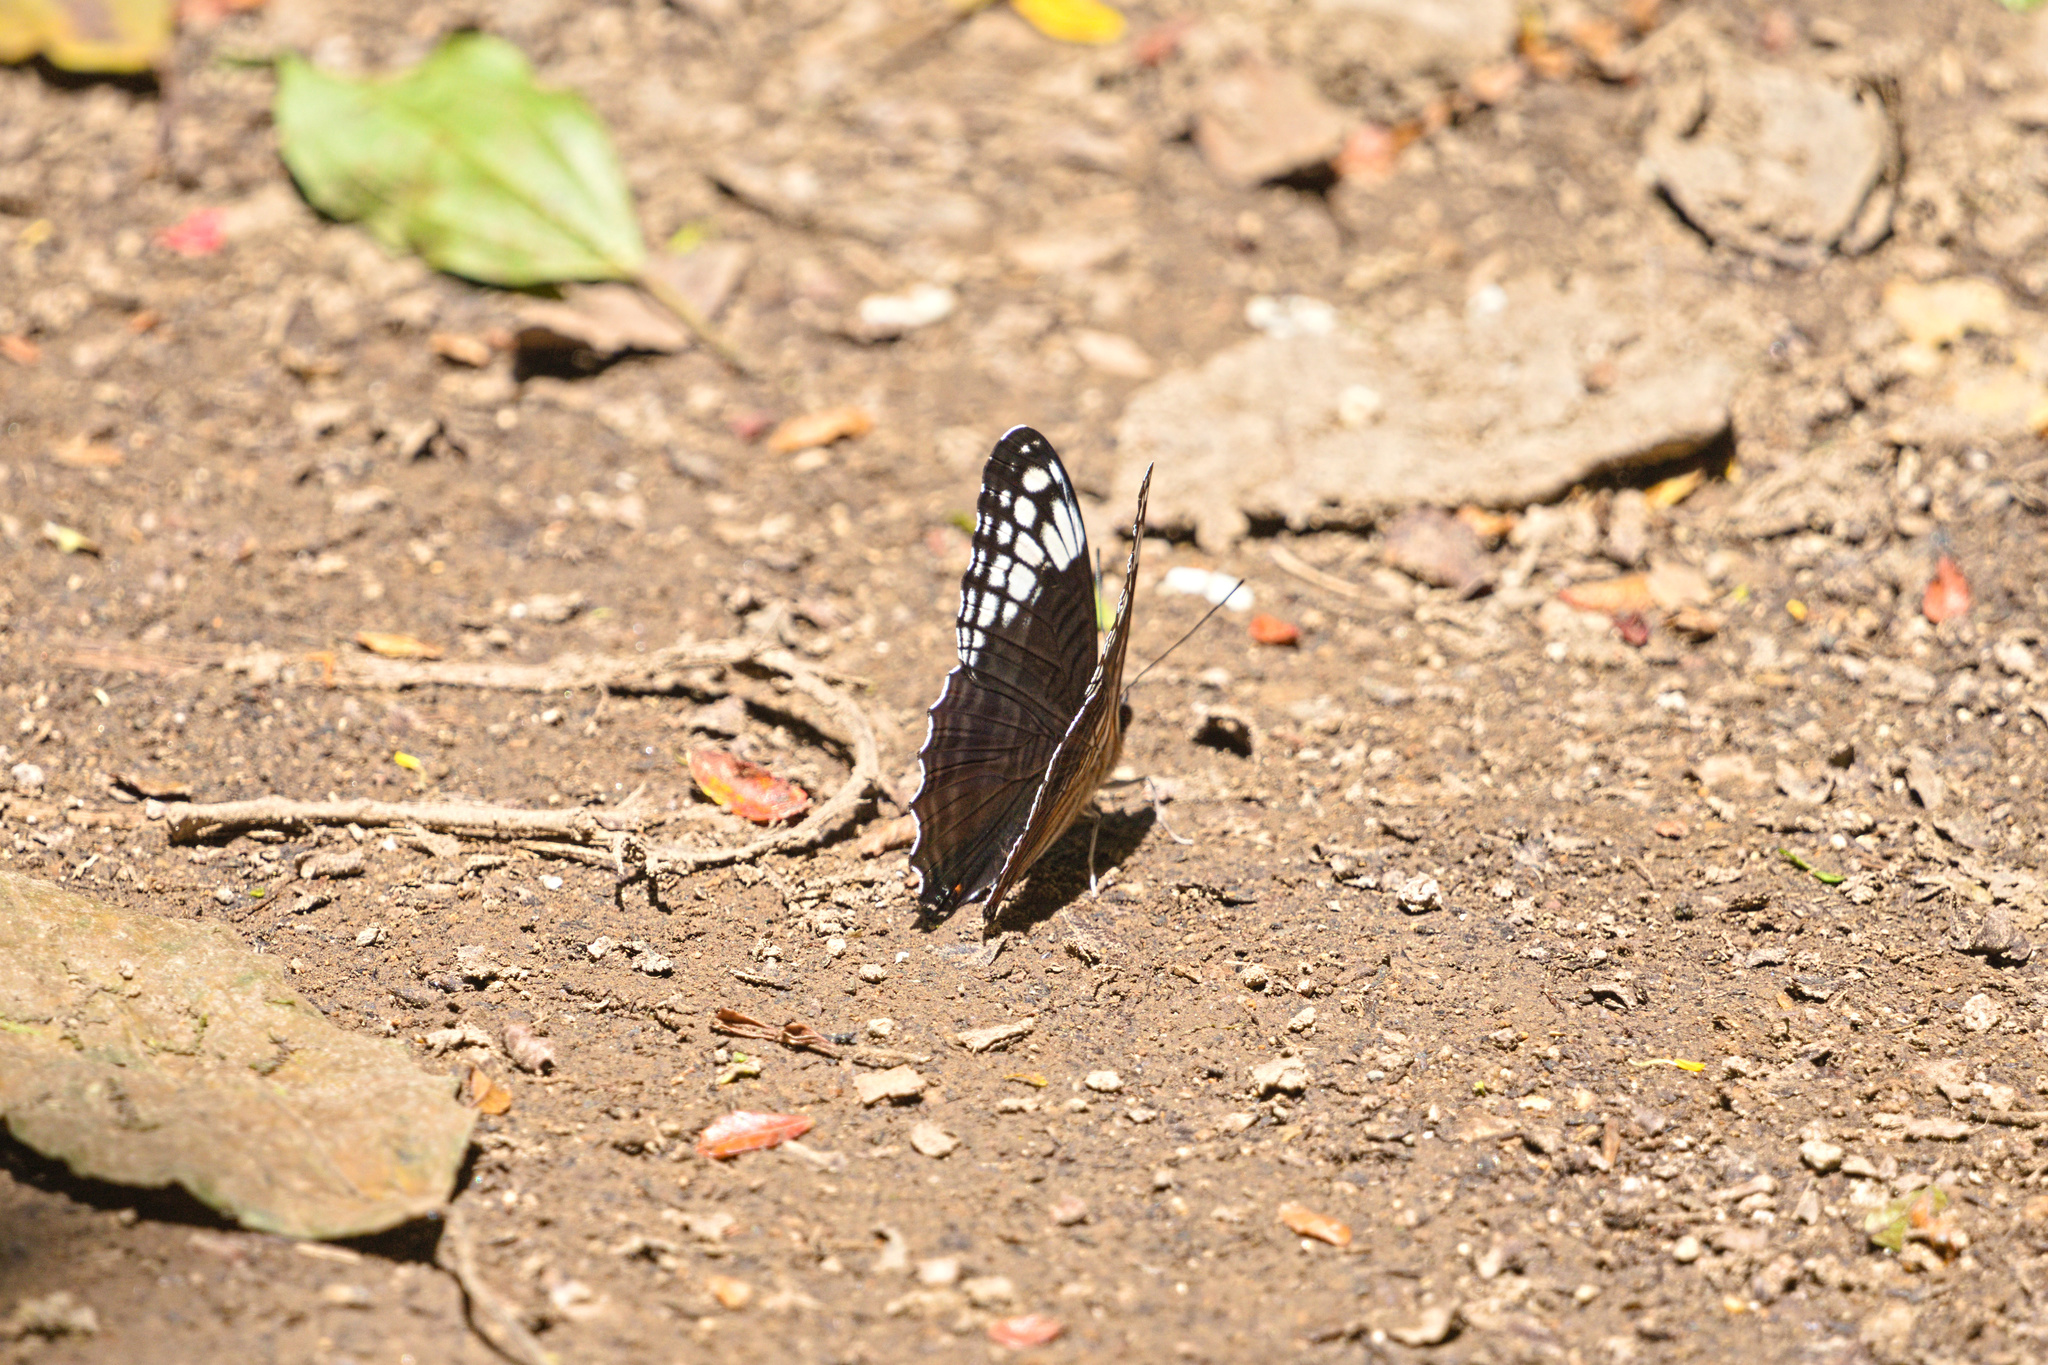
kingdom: Animalia
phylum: Arthropoda
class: Insecta
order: Lepidoptera
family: Nymphalidae
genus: Limenitis
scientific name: Limenitis Adelpha demialba
